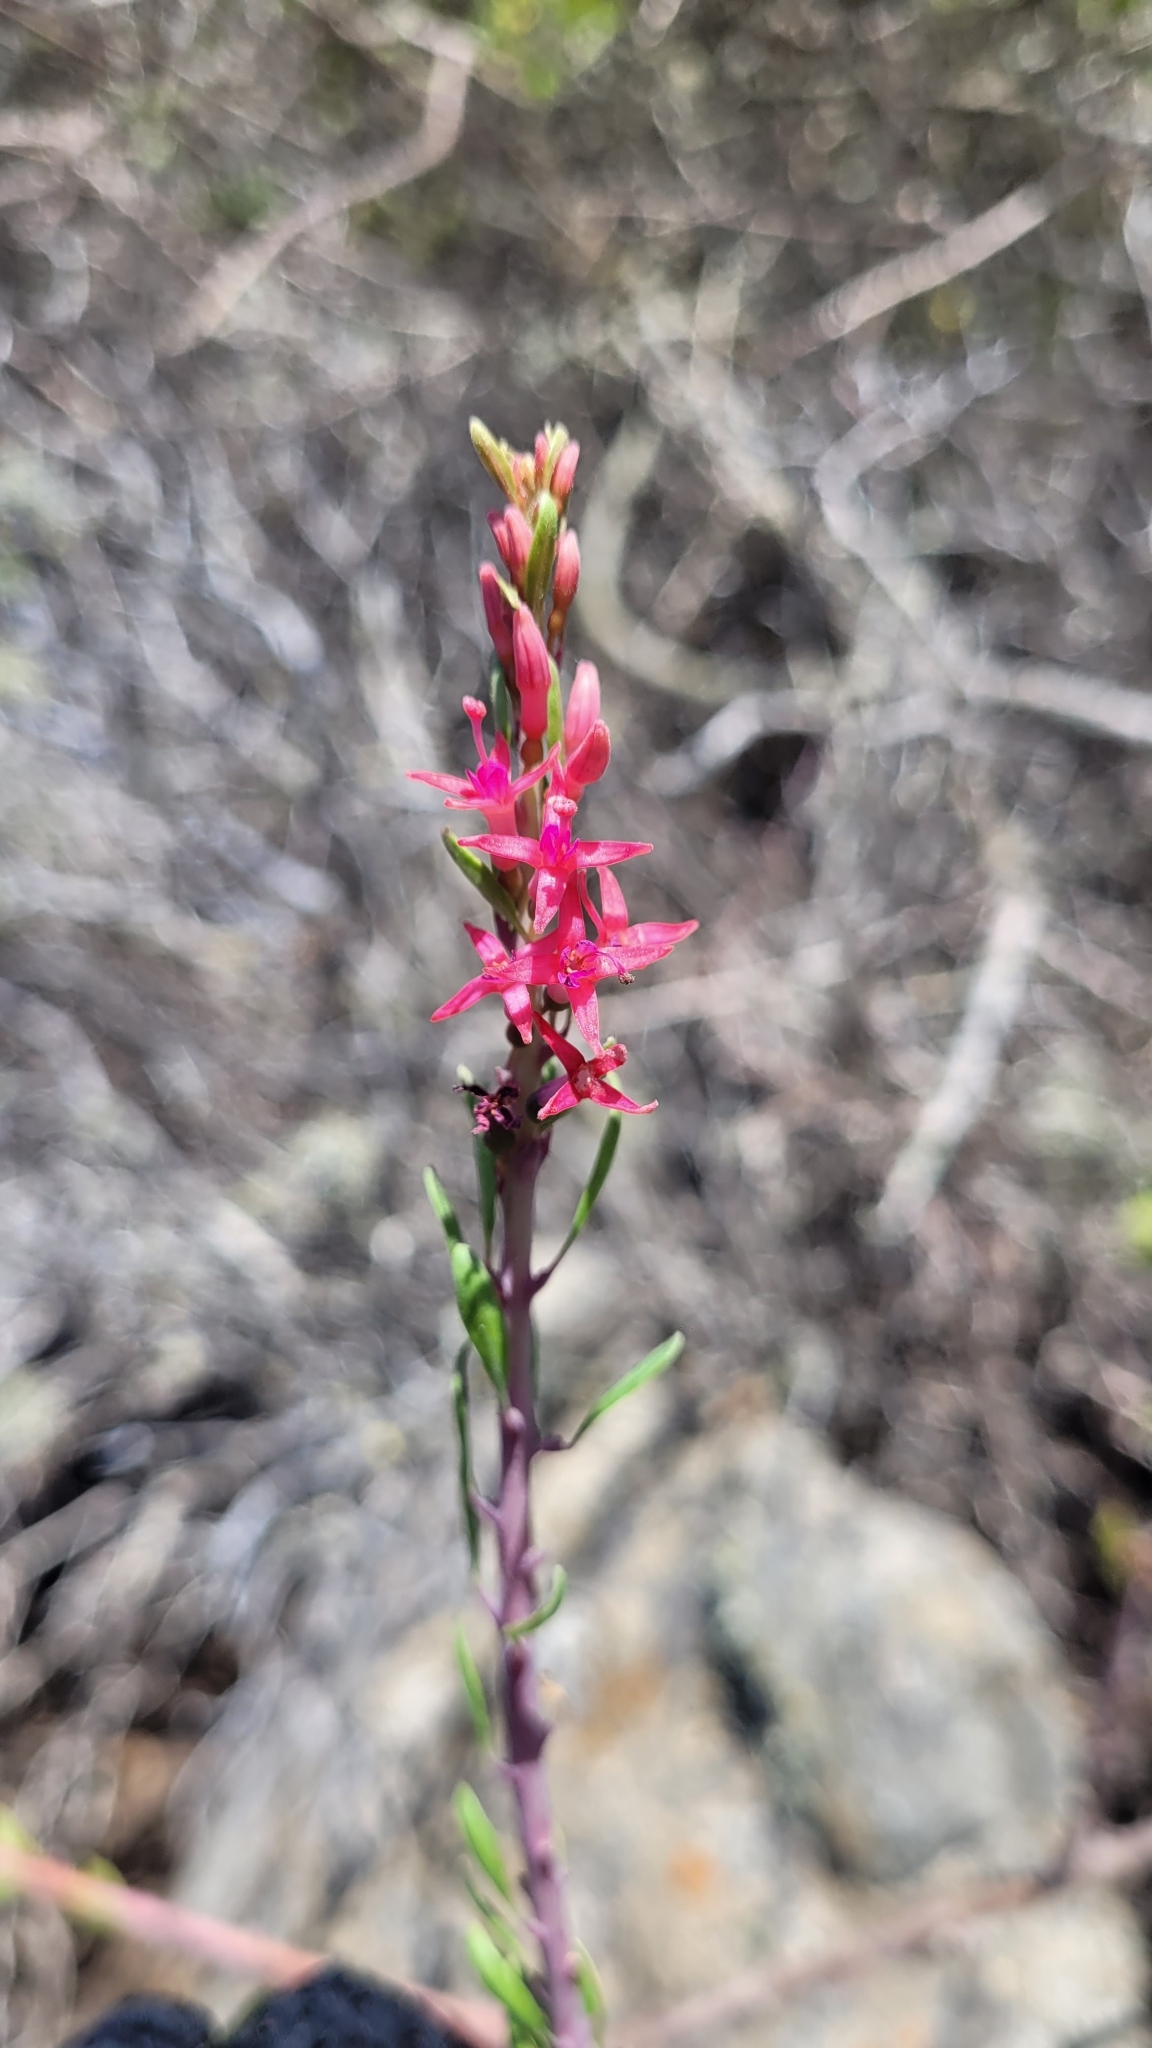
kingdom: Plantae
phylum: Tracheophyta
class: Magnoliopsida
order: Myrtales
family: Onagraceae
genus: Fuchsia
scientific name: Fuchsia lycioides
